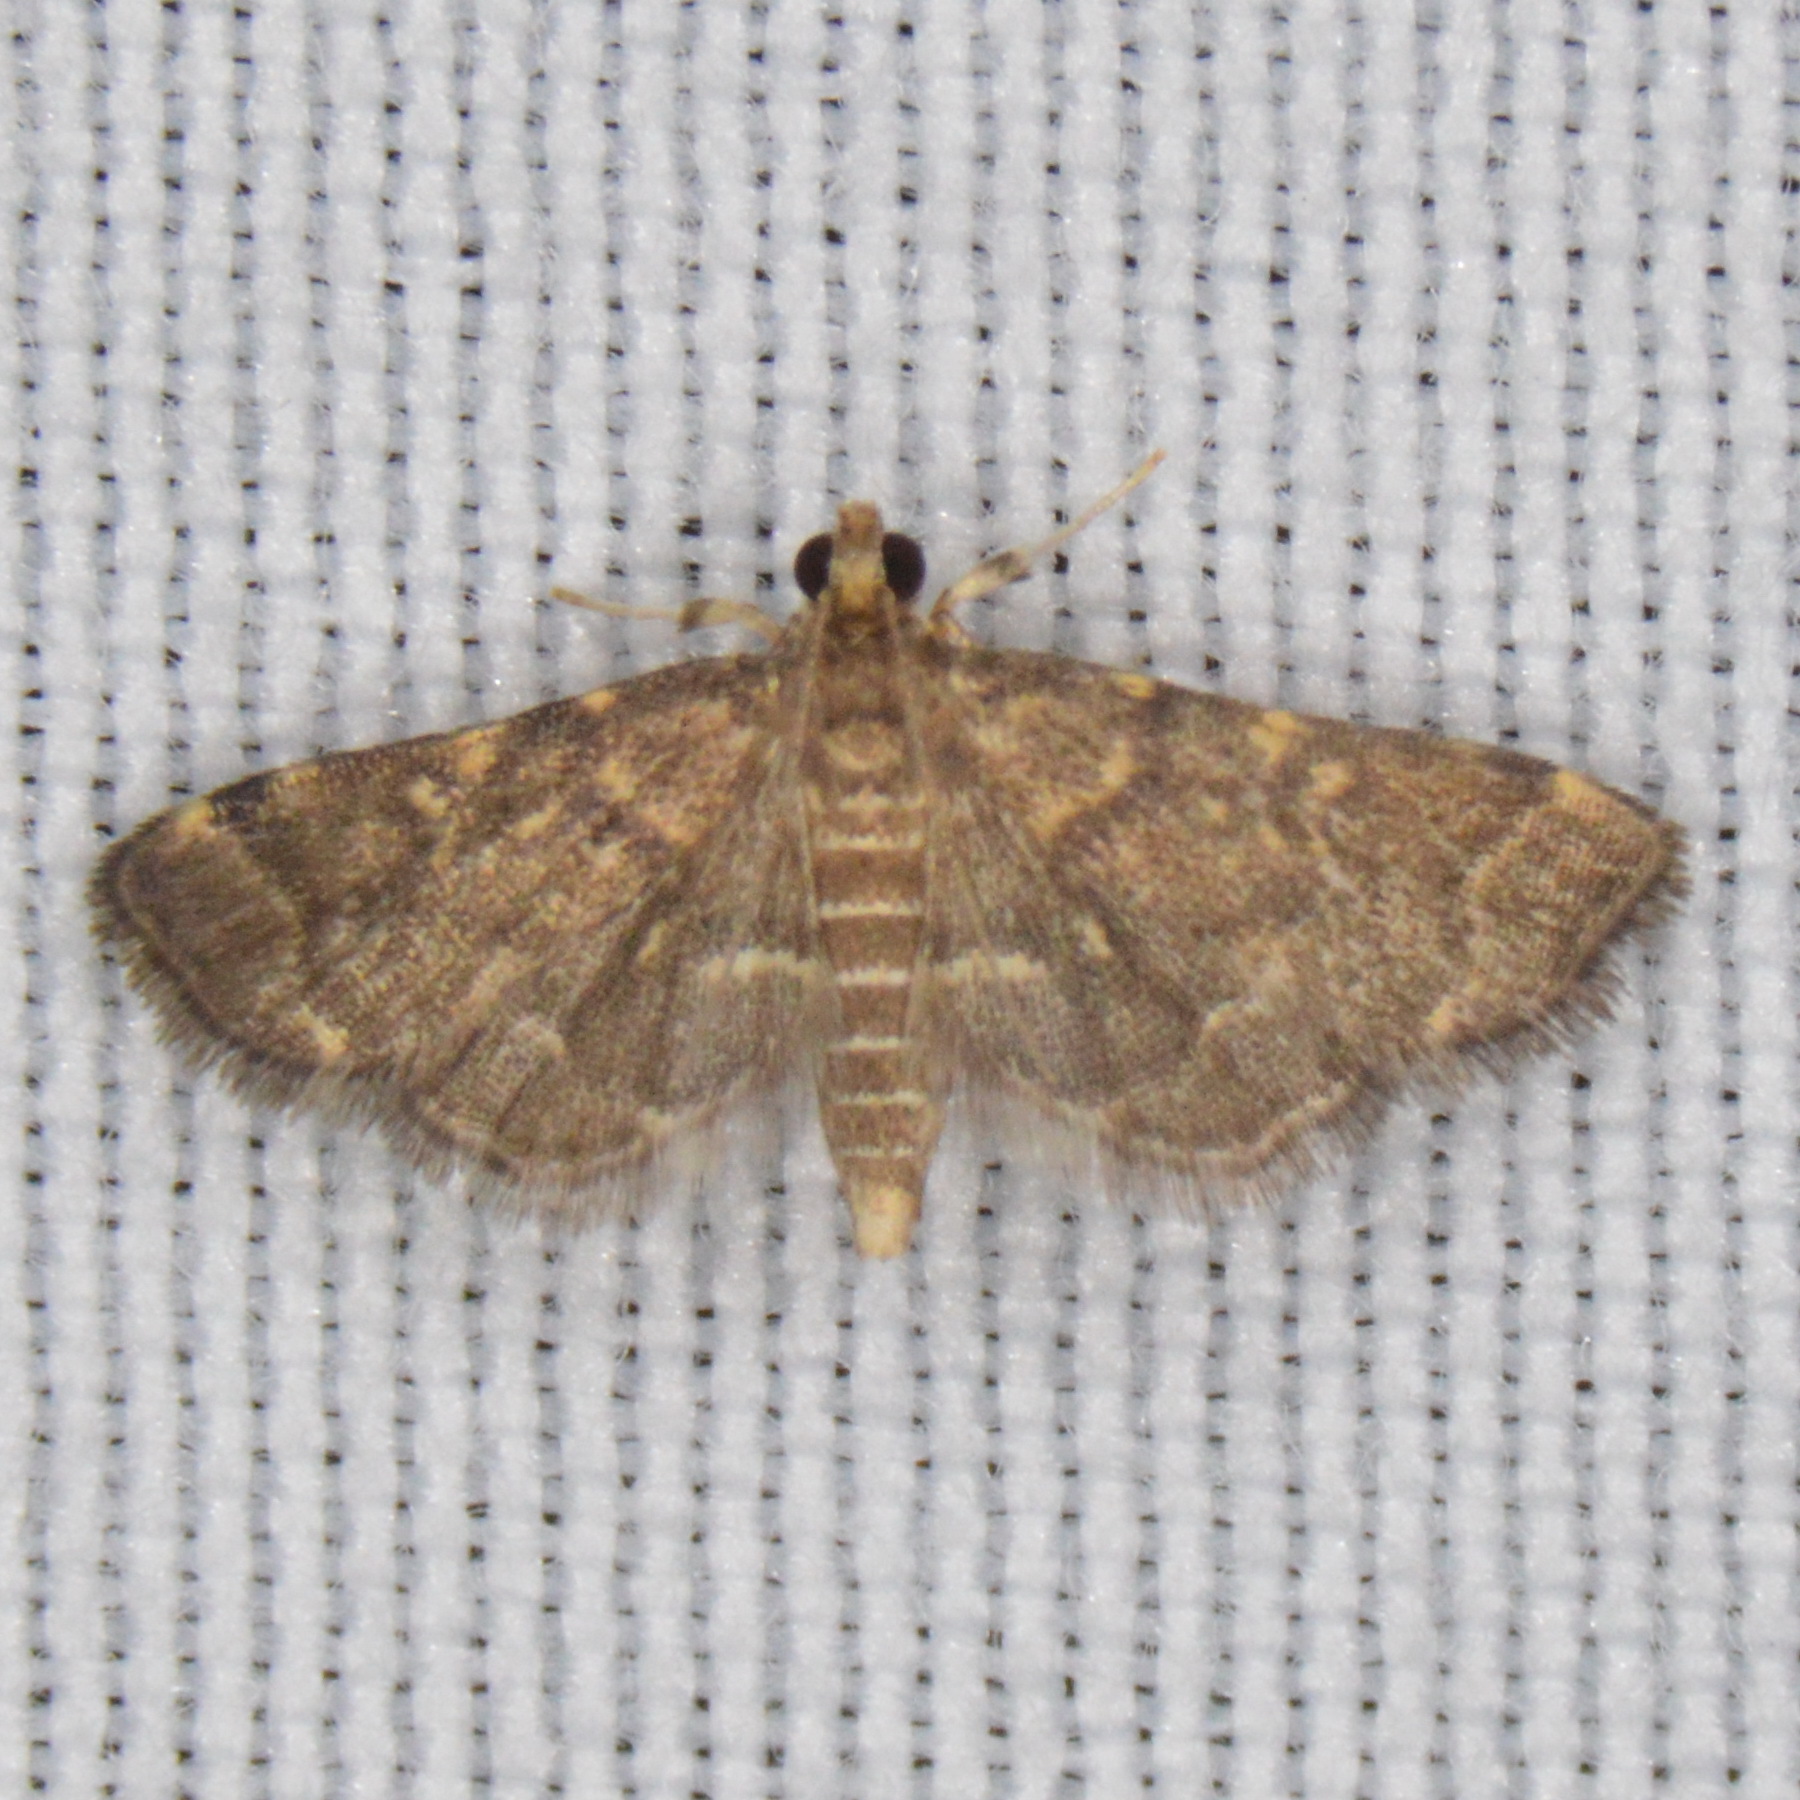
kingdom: Animalia
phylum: Arthropoda
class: Insecta
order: Lepidoptera
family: Crambidae
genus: Anageshna
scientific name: Anageshna primordialis
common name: Yellow-spotted webworm moth
